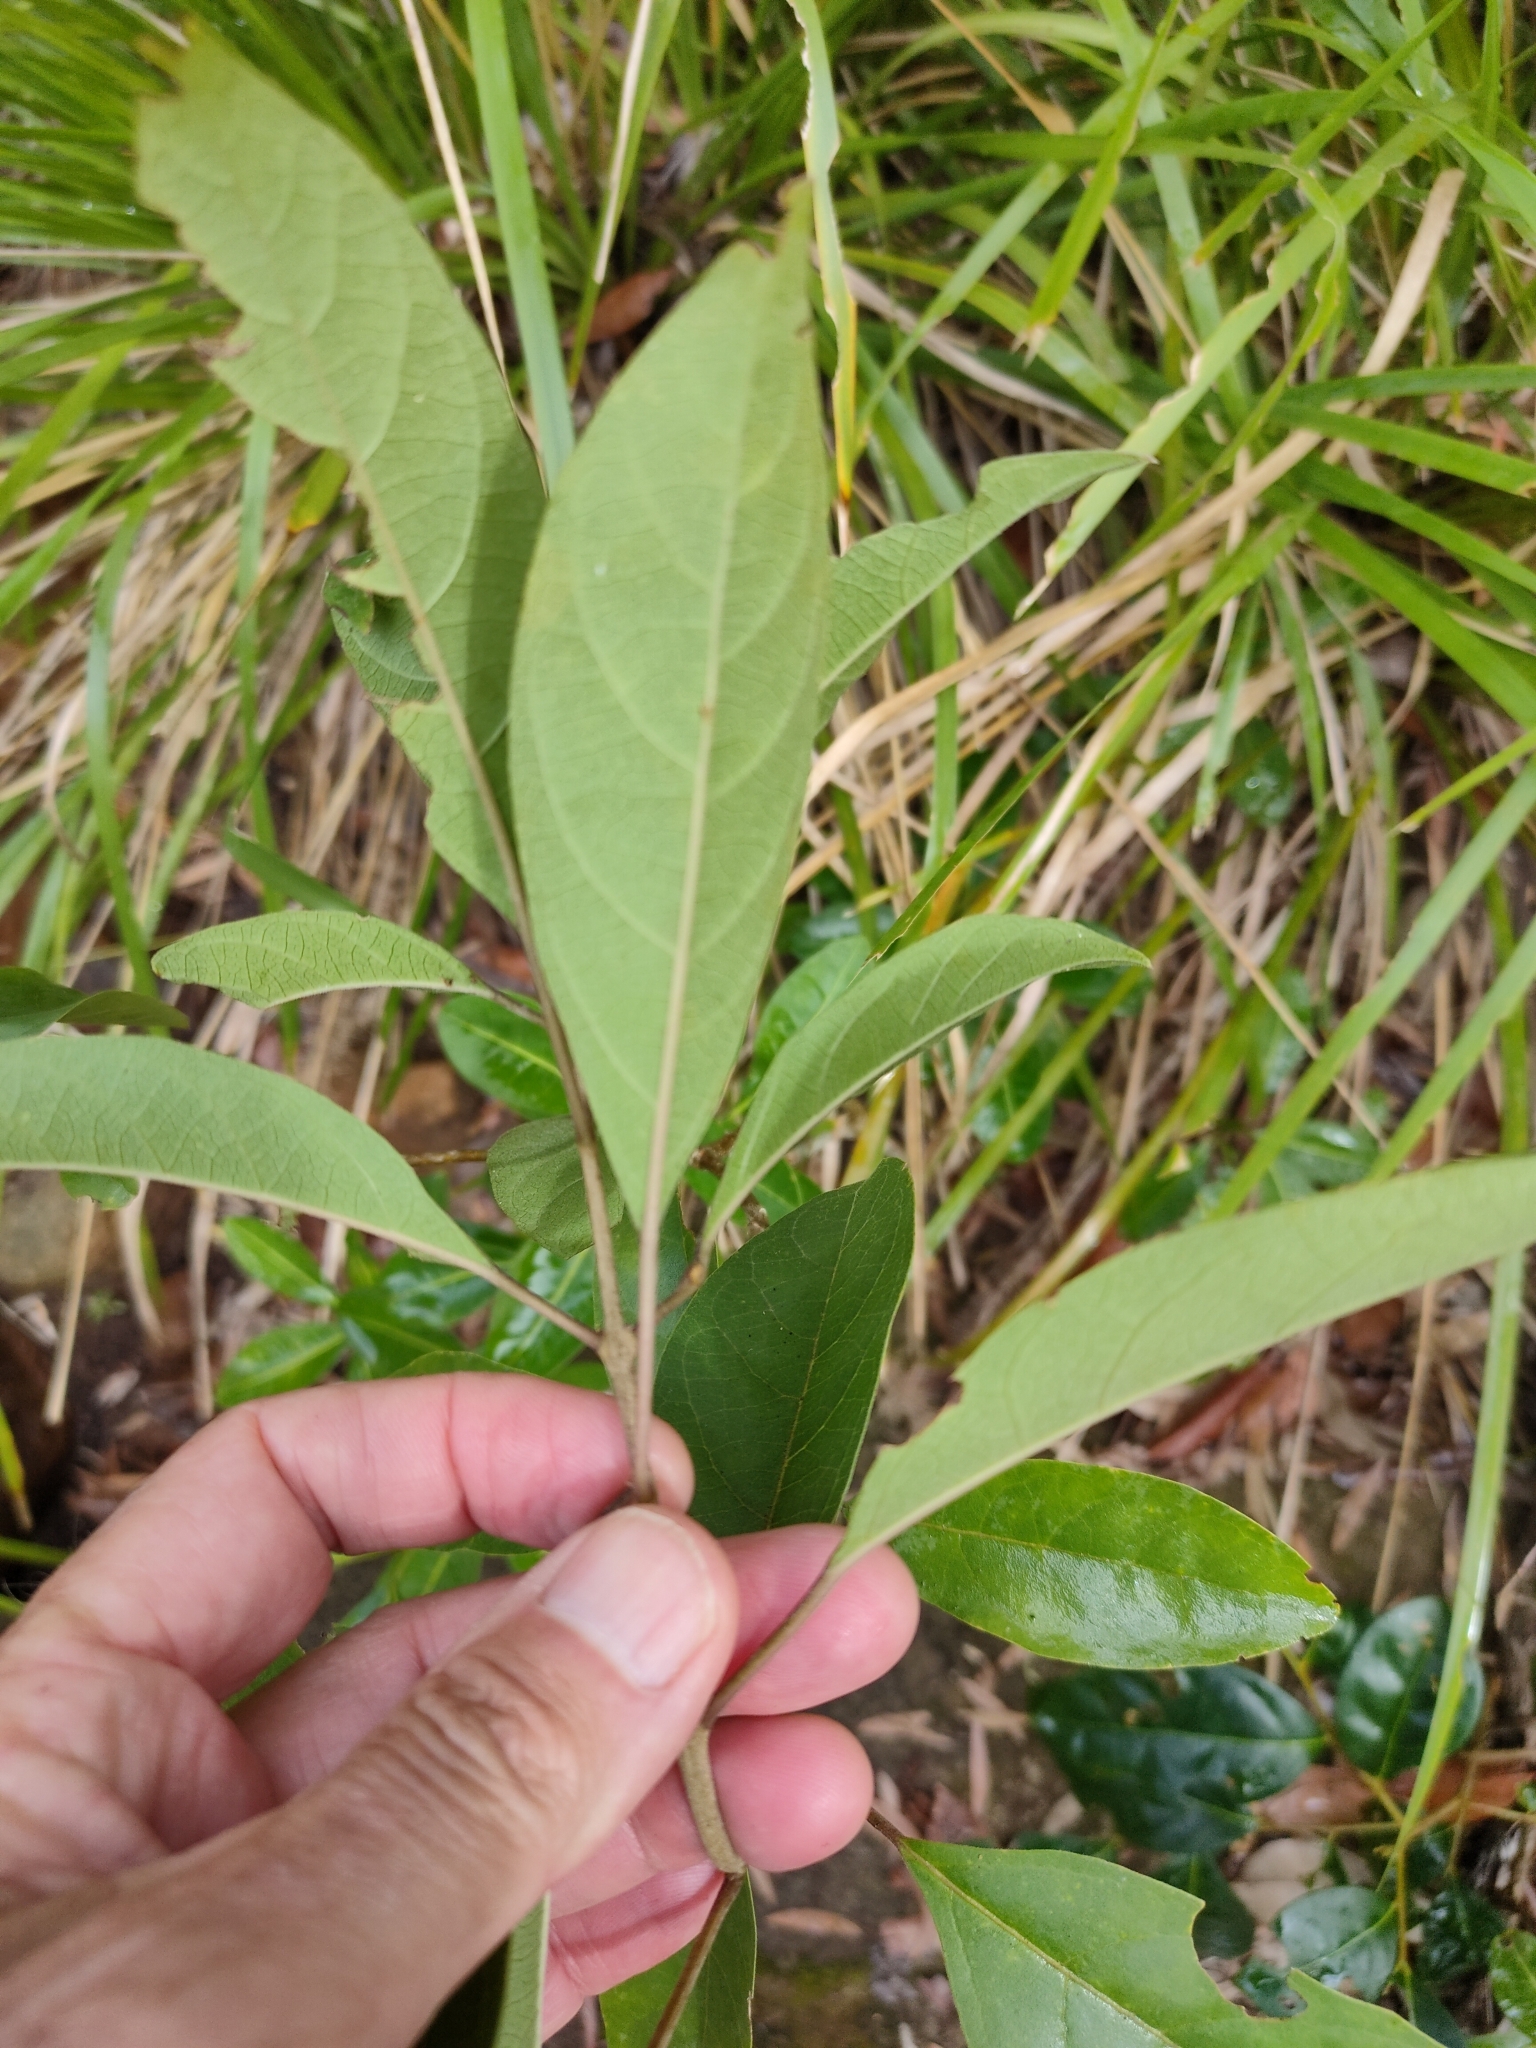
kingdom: Plantae
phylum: Tracheophyta
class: Magnoliopsida
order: Lamiales
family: Lamiaceae
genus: Clerodendrum
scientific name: Clerodendrum floribundum
